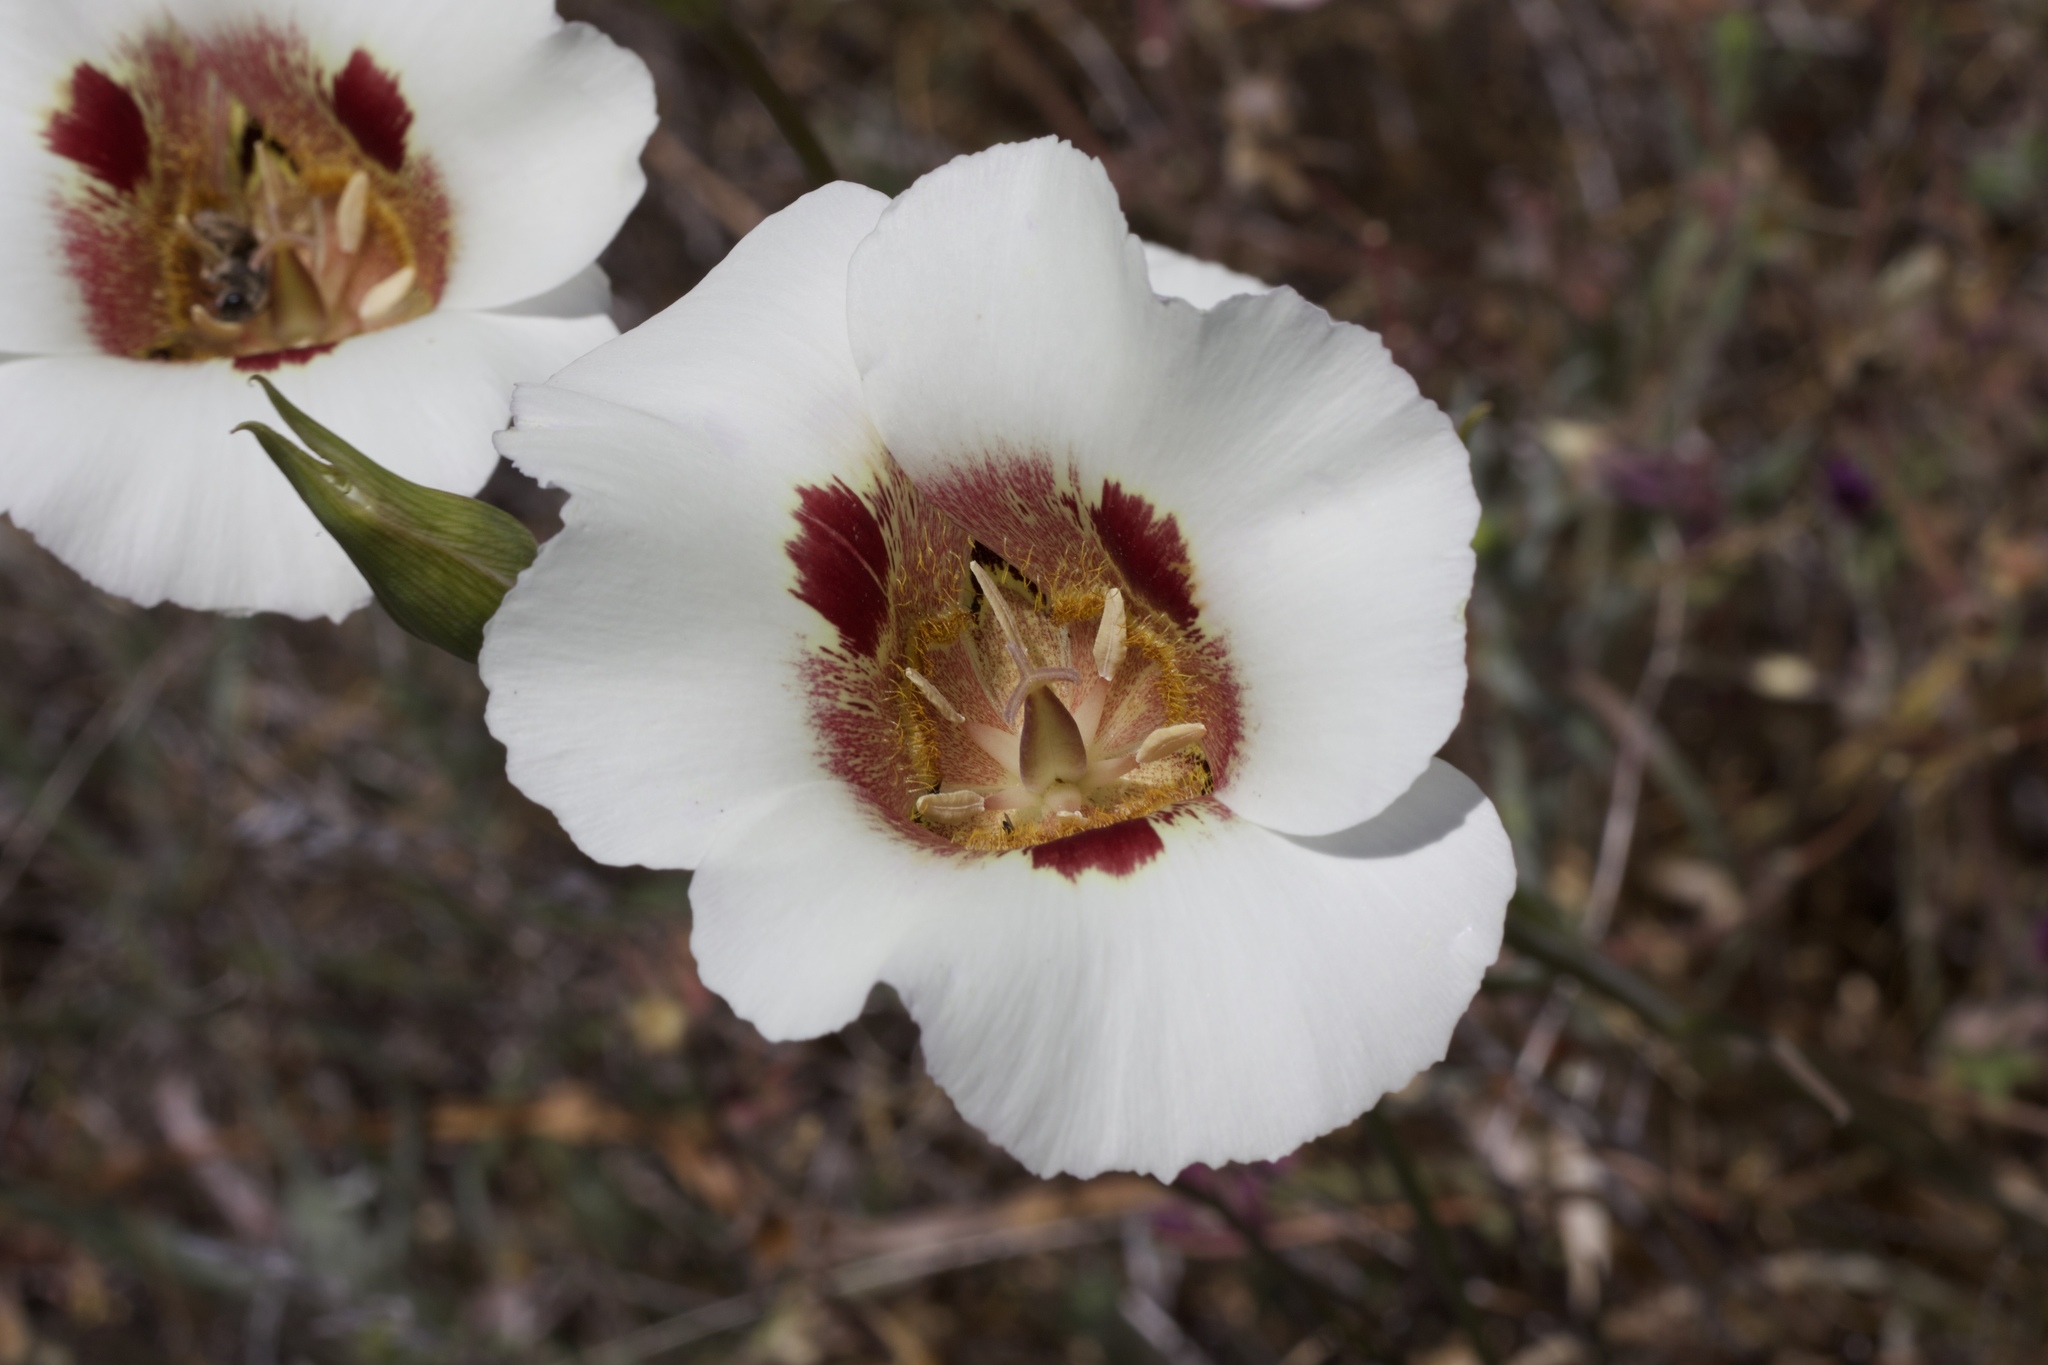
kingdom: Plantae
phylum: Tracheophyta
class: Liliopsida
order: Liliales
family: Liliaceae
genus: Calochortus
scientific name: Calochortus vestae
